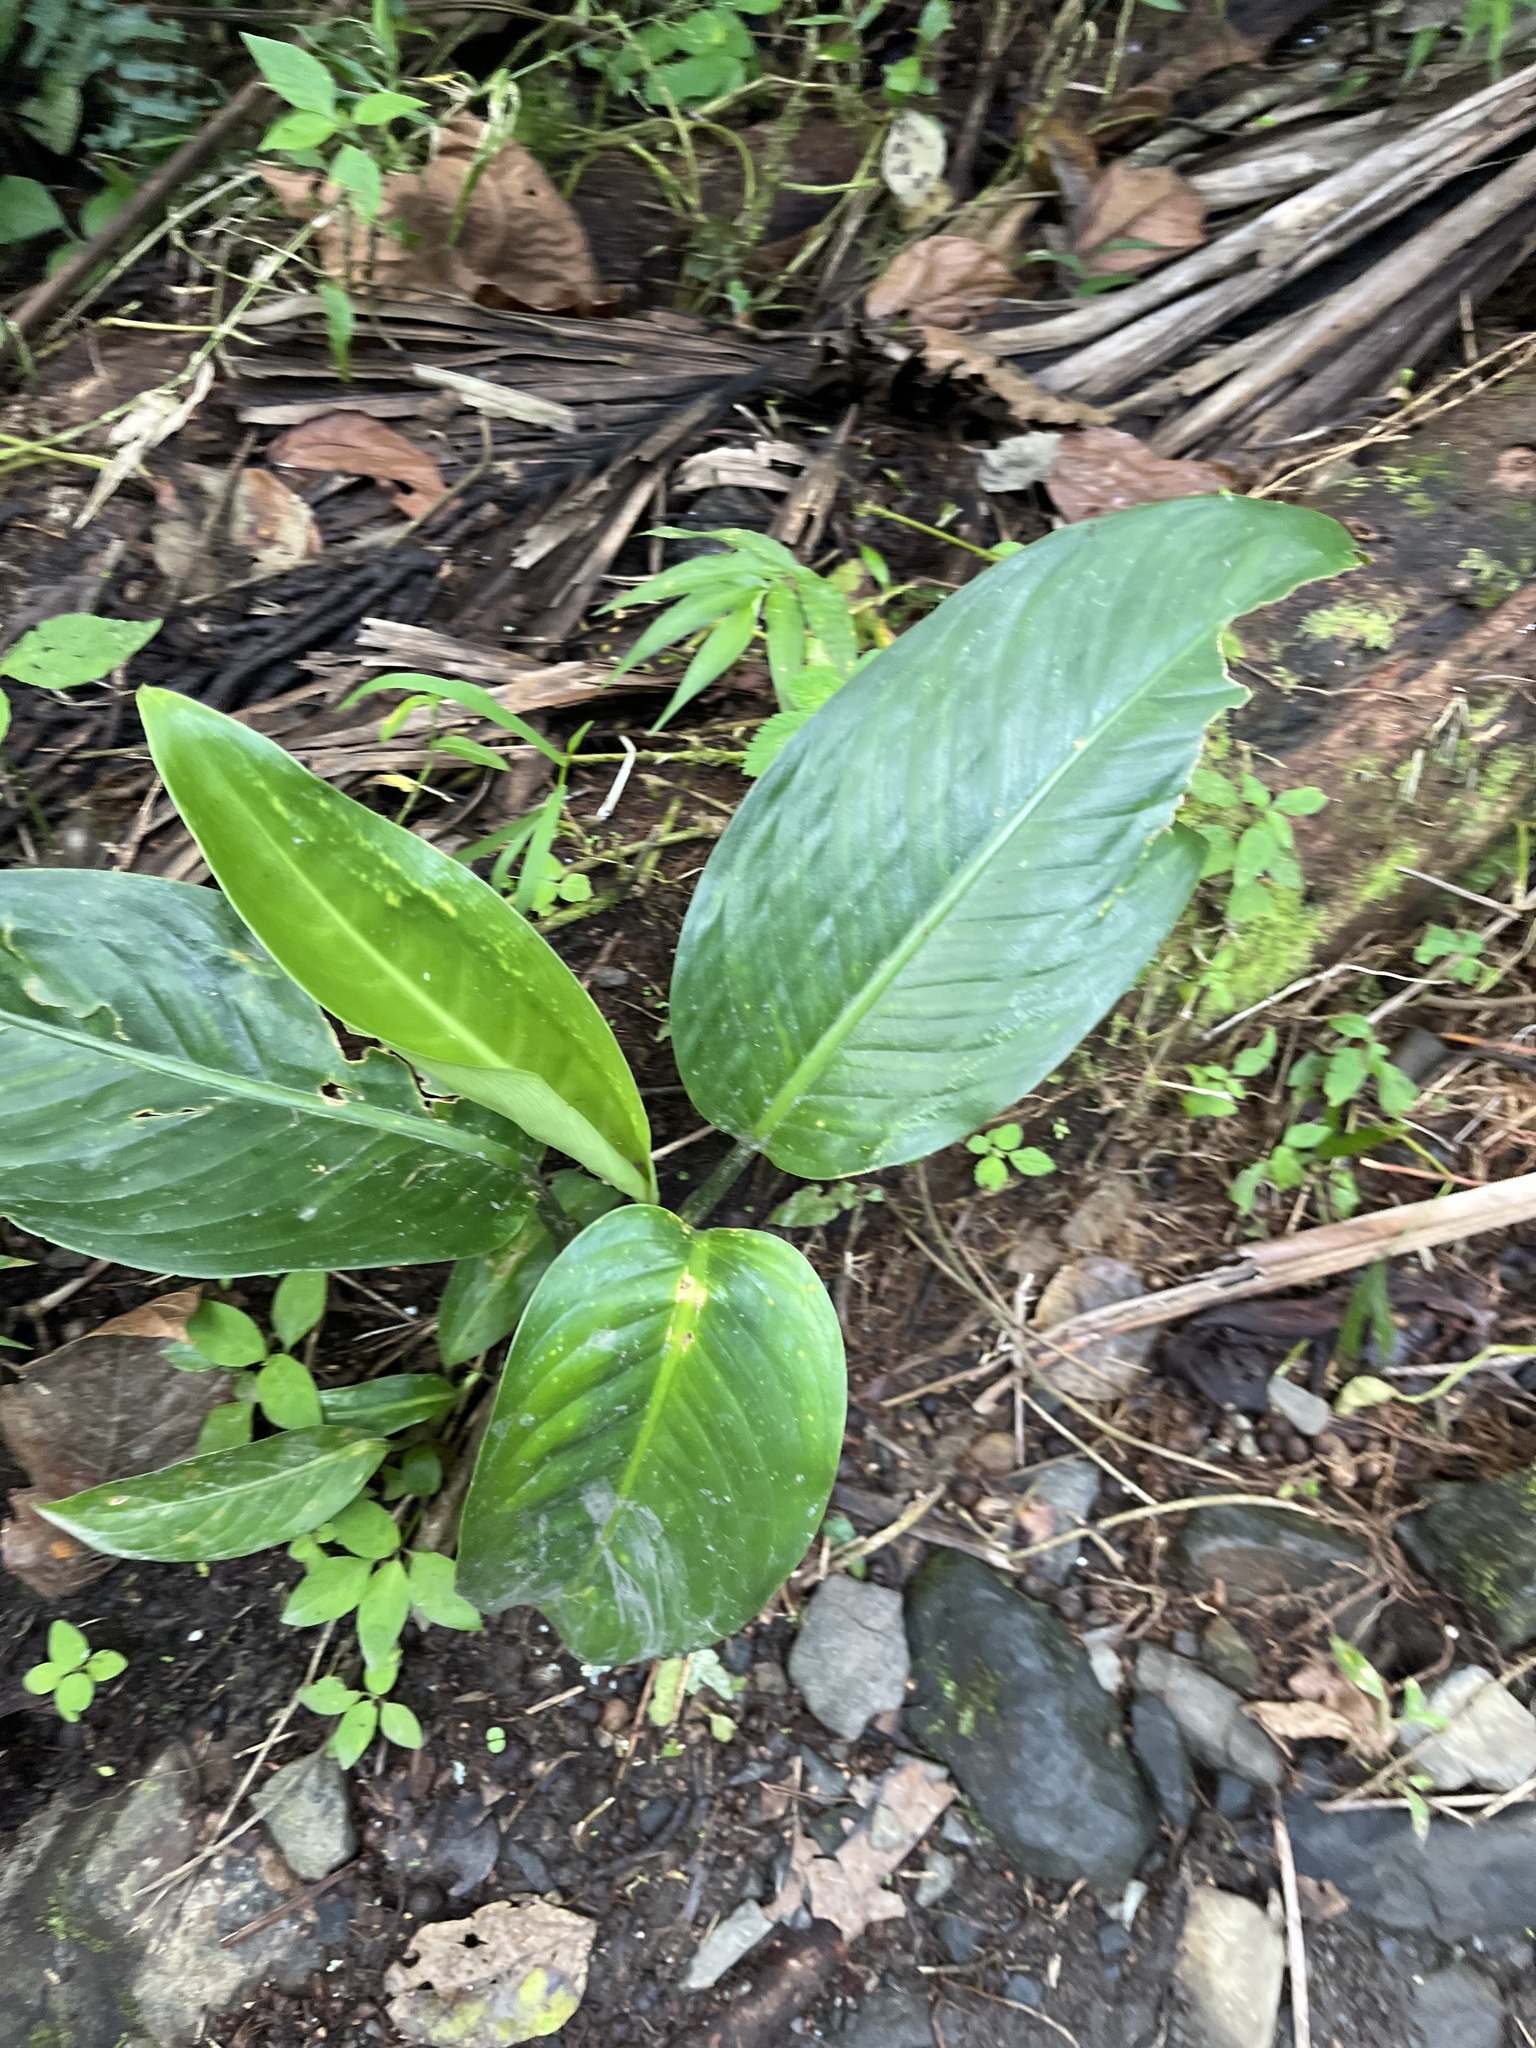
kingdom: Plantae
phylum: Tracheophyta
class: Liliopsida
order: Alismatales
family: Araceae
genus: Dieffenbachia
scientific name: Dieffenbachia seguine
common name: Dumbcane
